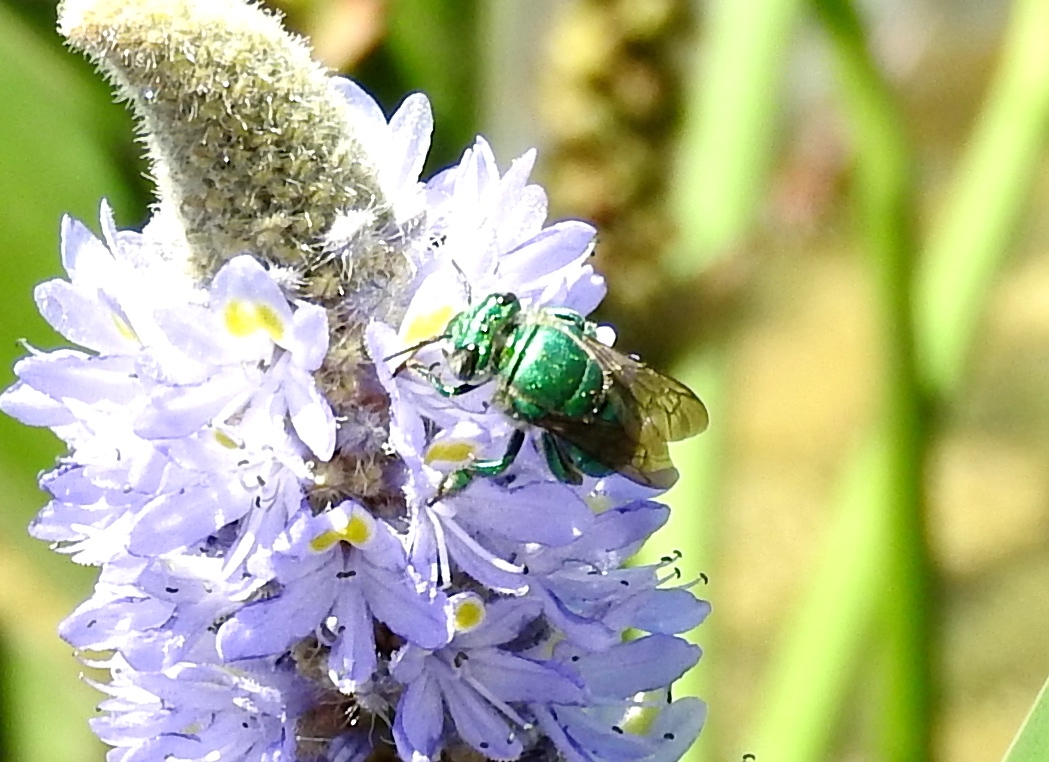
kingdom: Animalia
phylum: Arthropoda
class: Insecta
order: Hymenoptera
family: Apidae
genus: Euglossa
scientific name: Euglossa
